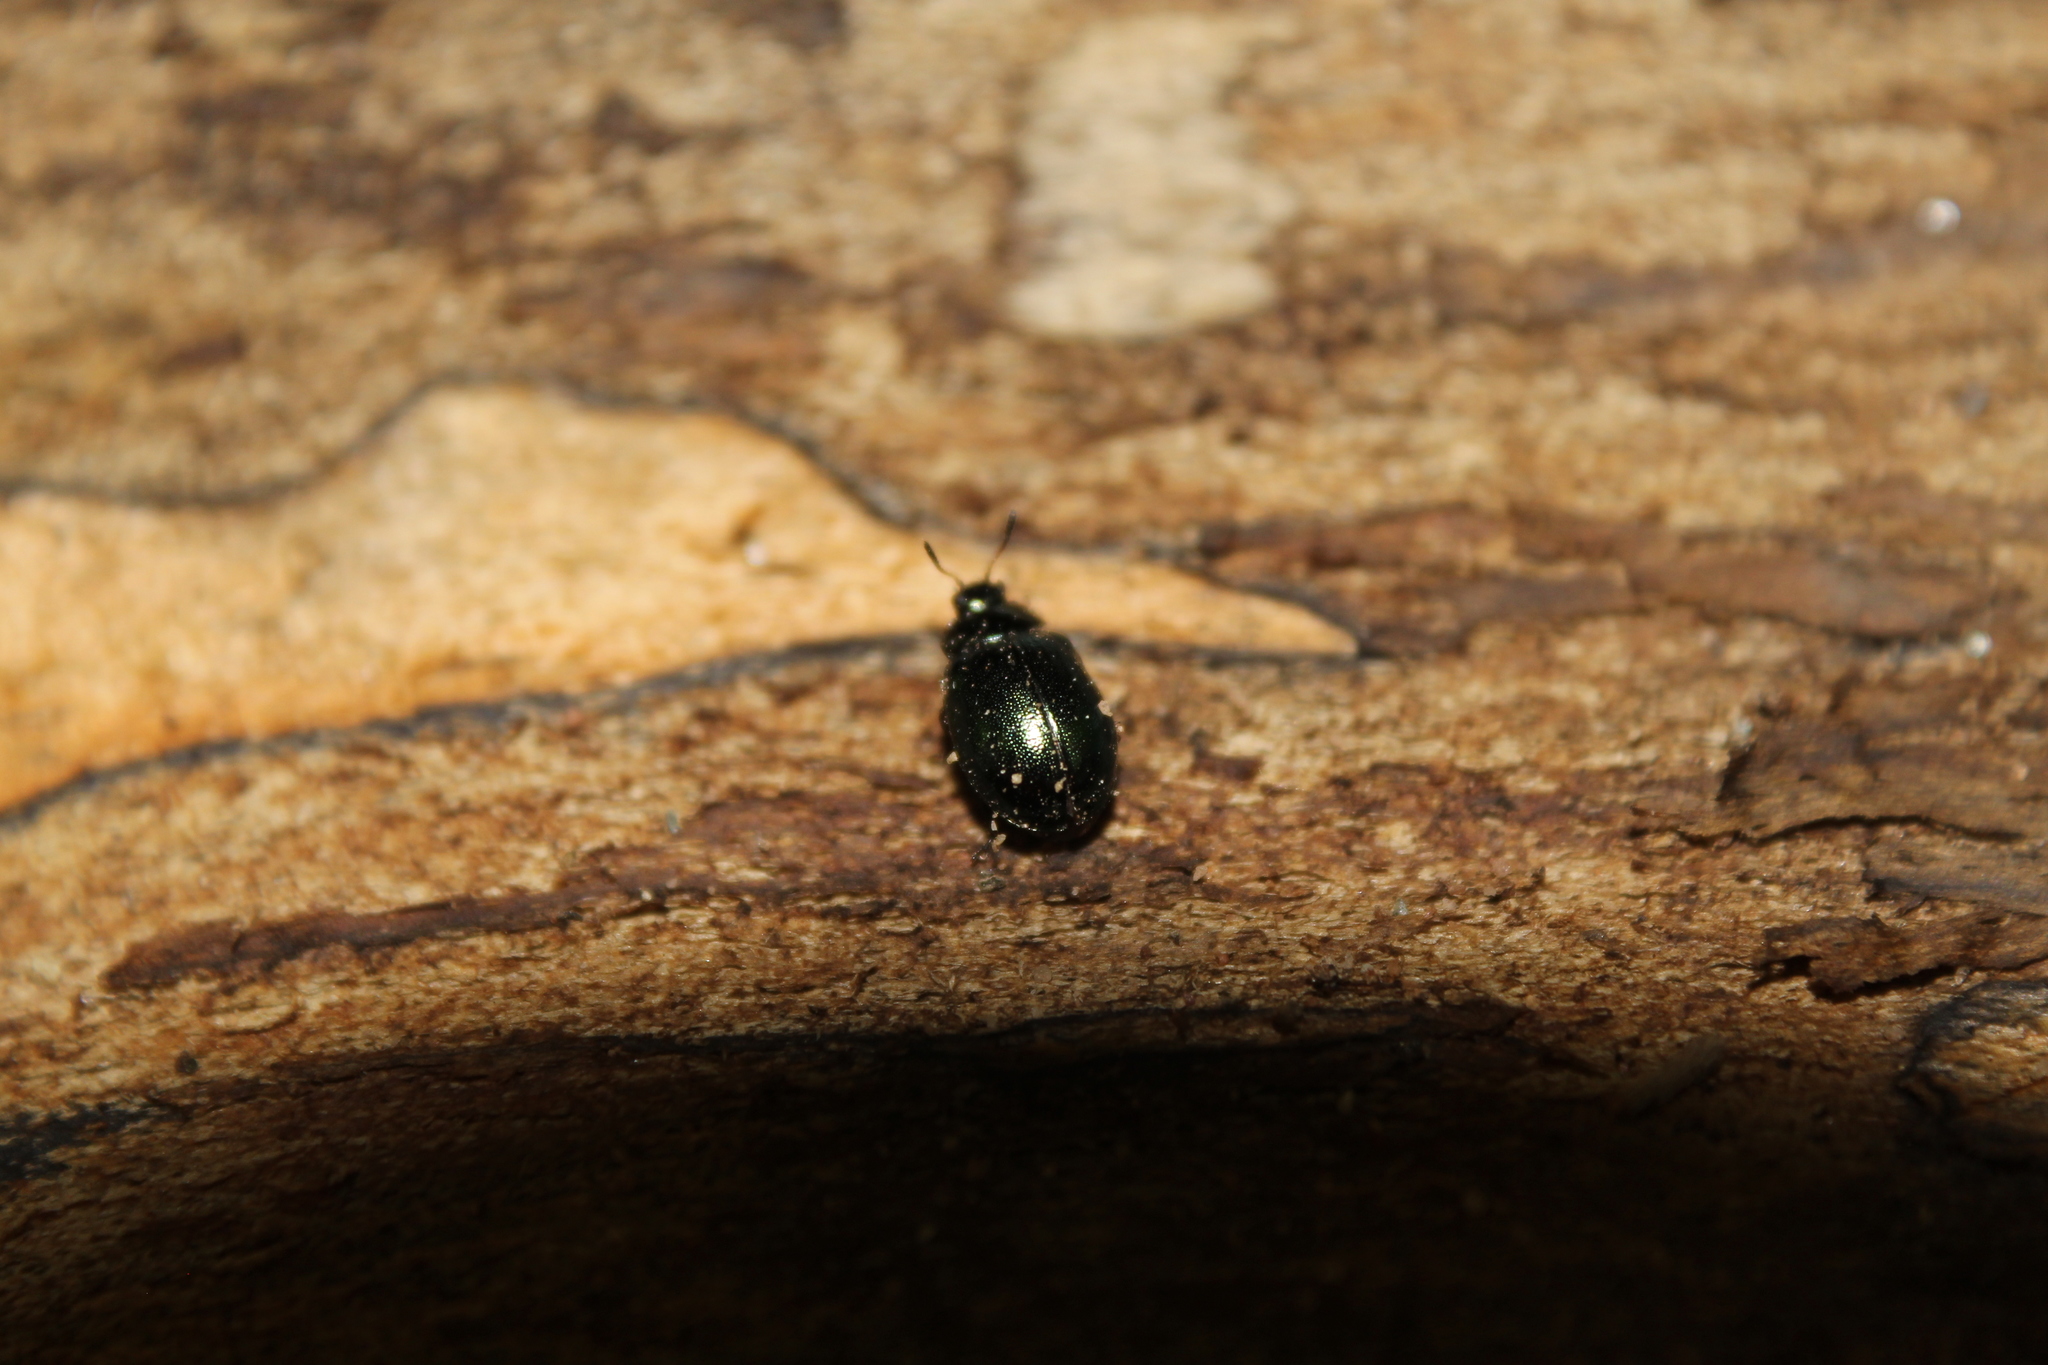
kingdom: Animalia
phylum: Arthropoda
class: Insecta
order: Coleoptera
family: Chrysomelidae
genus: Plagiodera
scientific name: Plagiodera versicolora
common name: Imported willow leaf beetle
